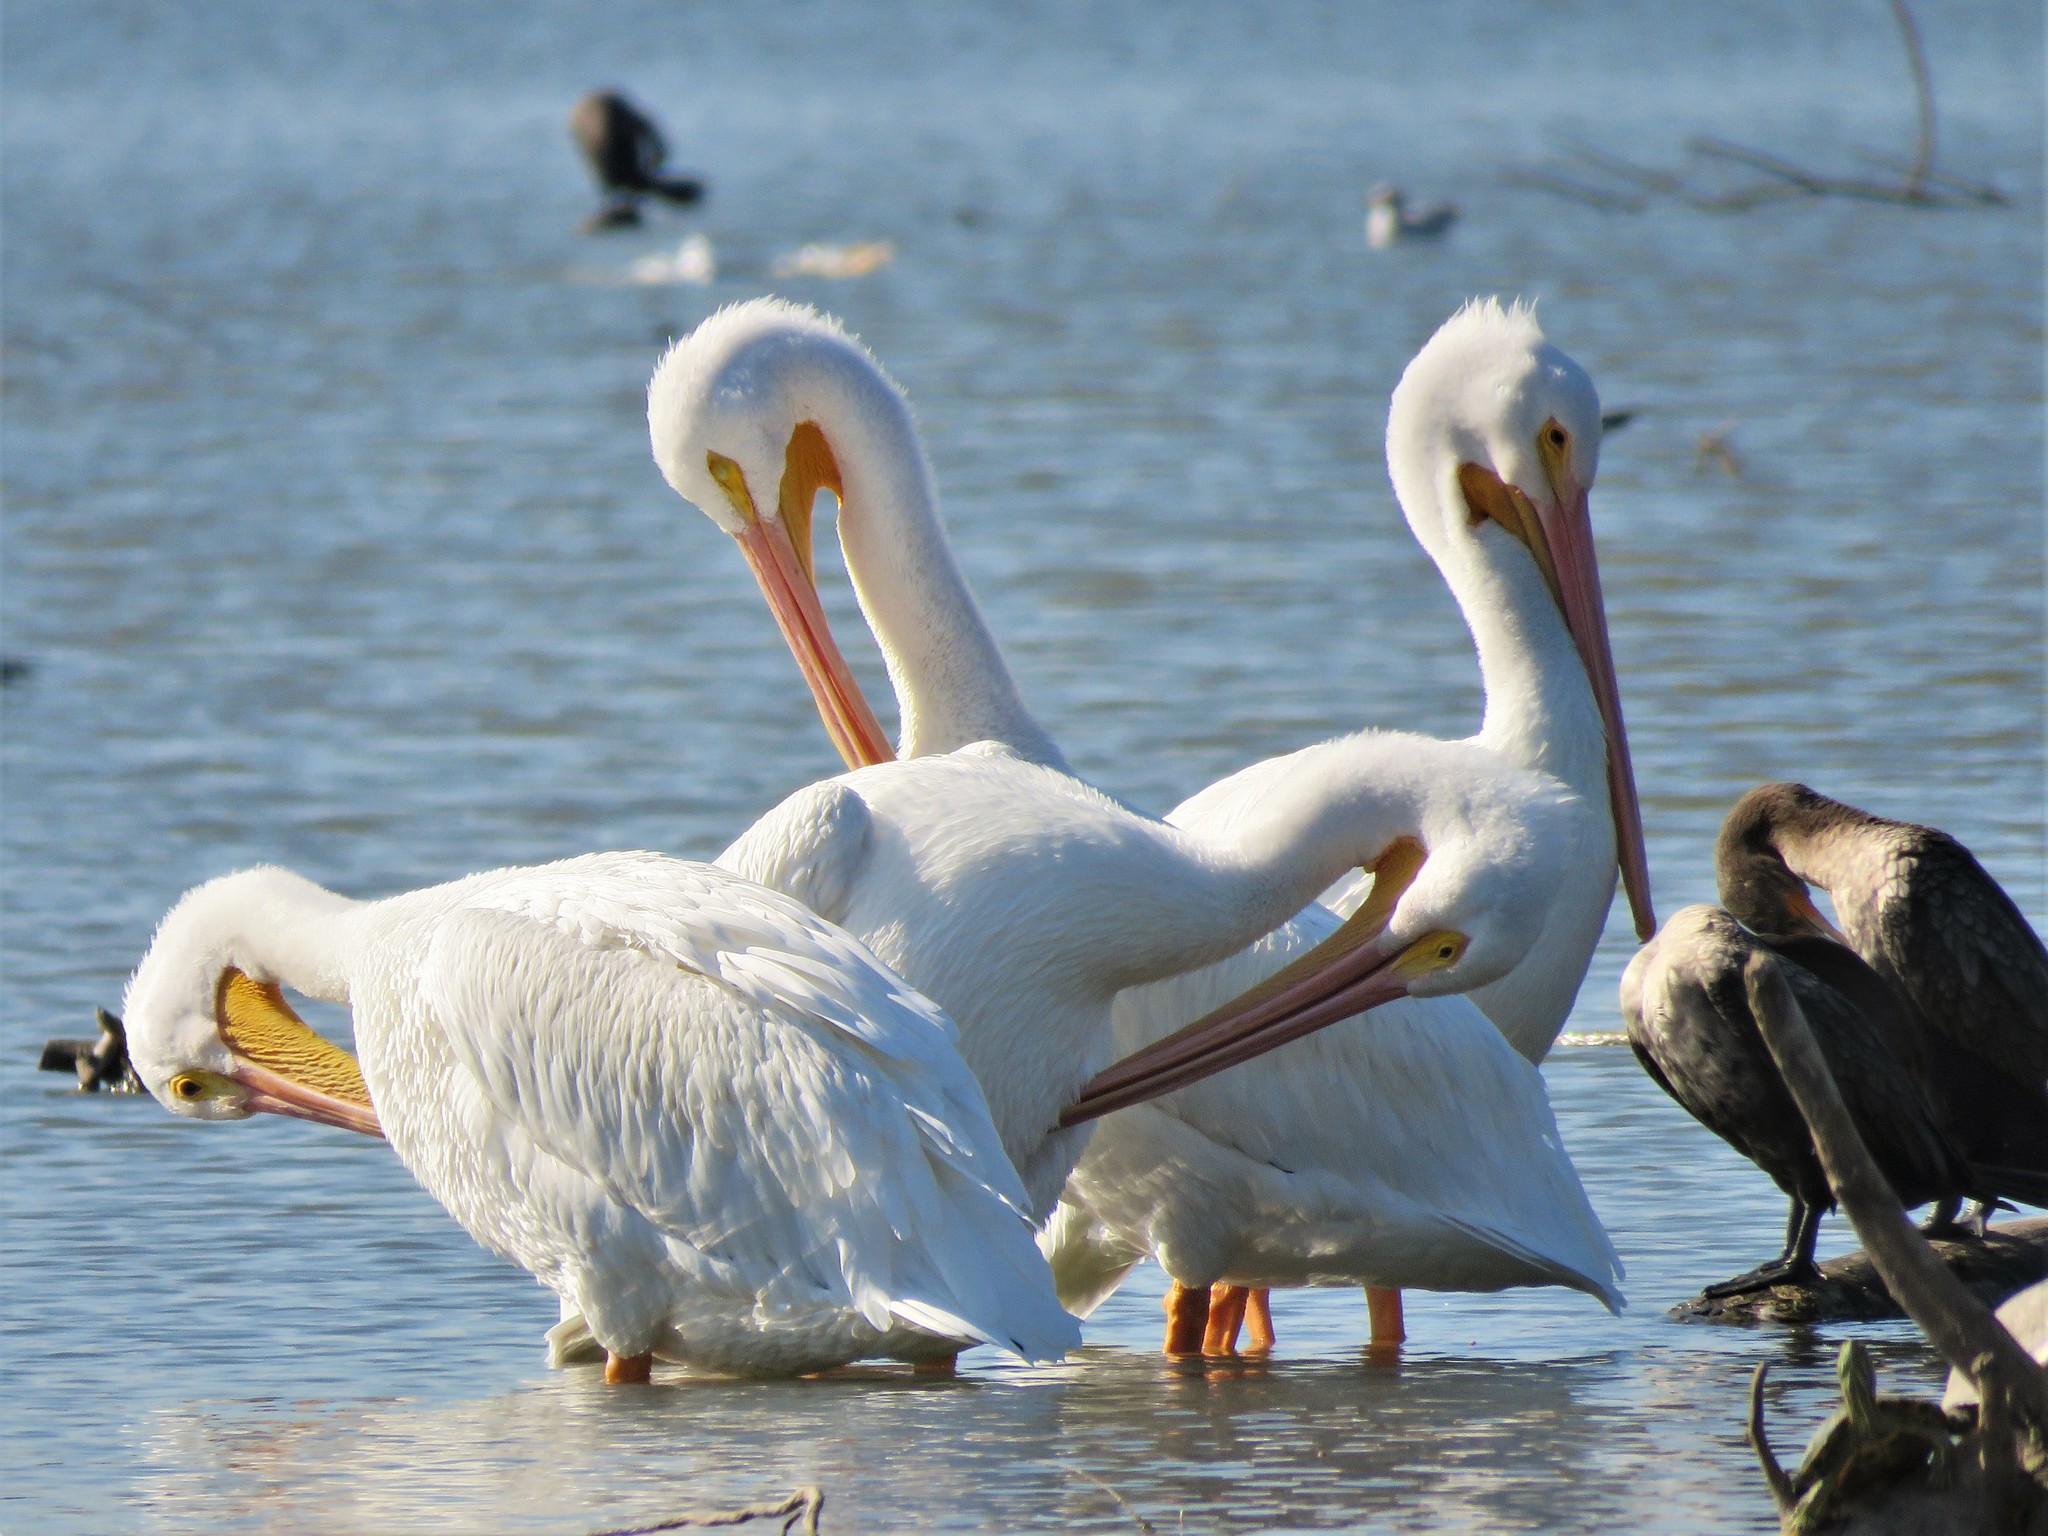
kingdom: Animalia
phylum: Chordata
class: Aves
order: Pelecaniformes
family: Pelecanidae
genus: Pelecanus
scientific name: Pelecanus erythrorhynchos
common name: American white pelican
